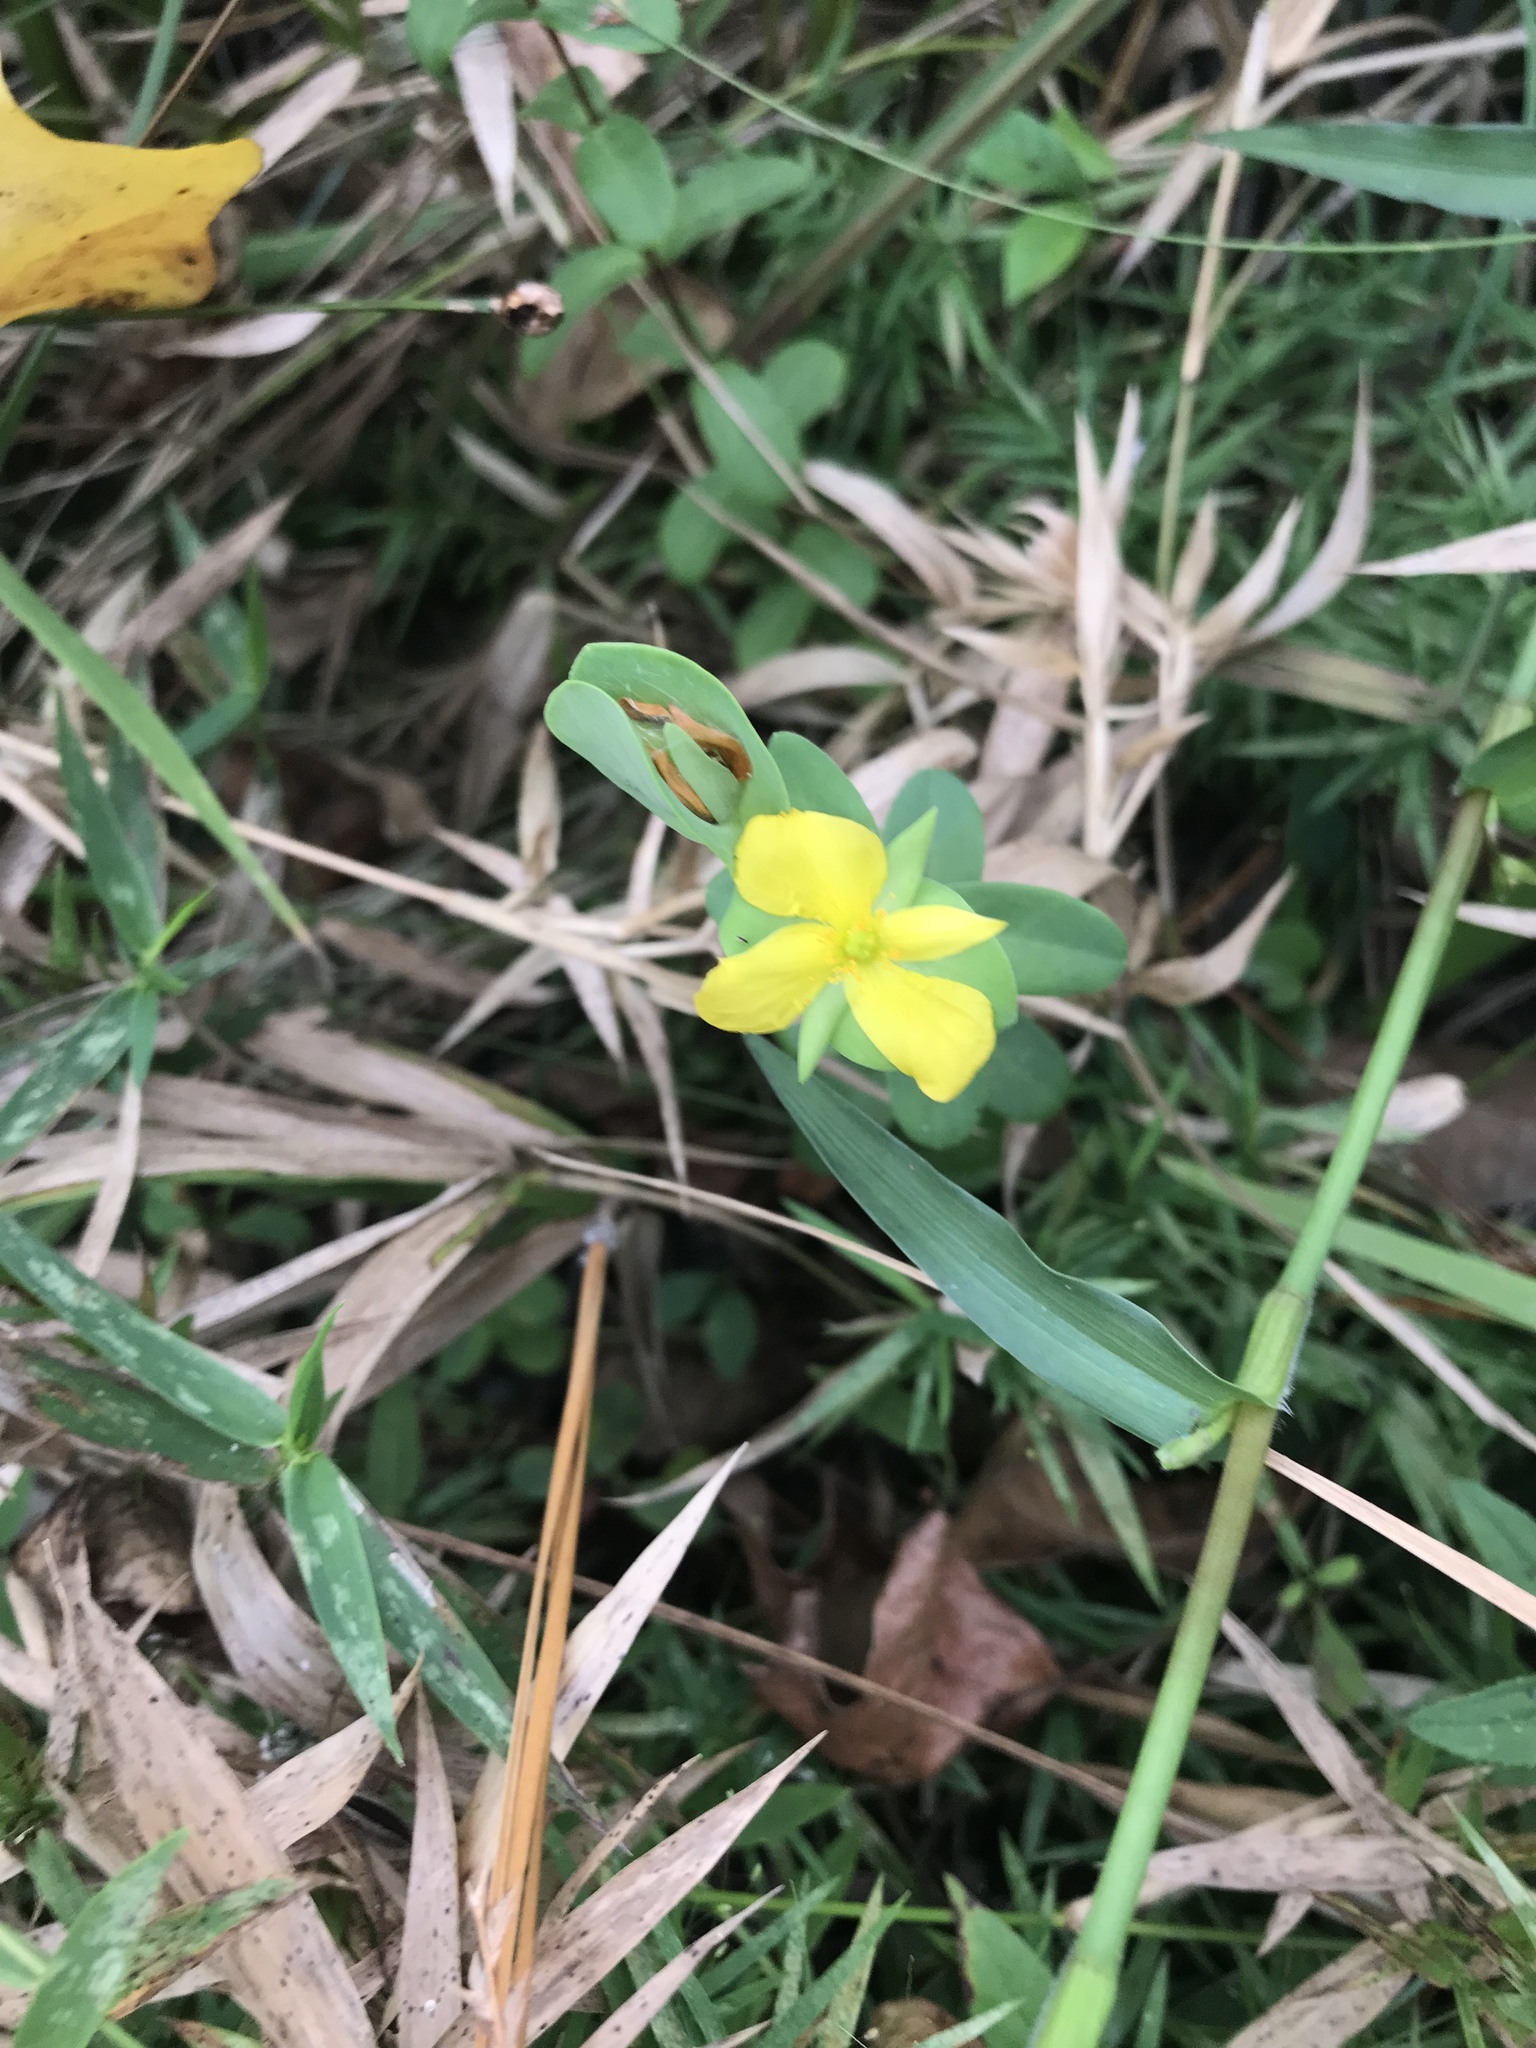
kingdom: Plantae
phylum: Tracheophyta
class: Magnoliopsida
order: Malpighiales
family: Hypericaceae
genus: Hypericum
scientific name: Hypericum crux-andreae
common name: St.-peter's-wort
